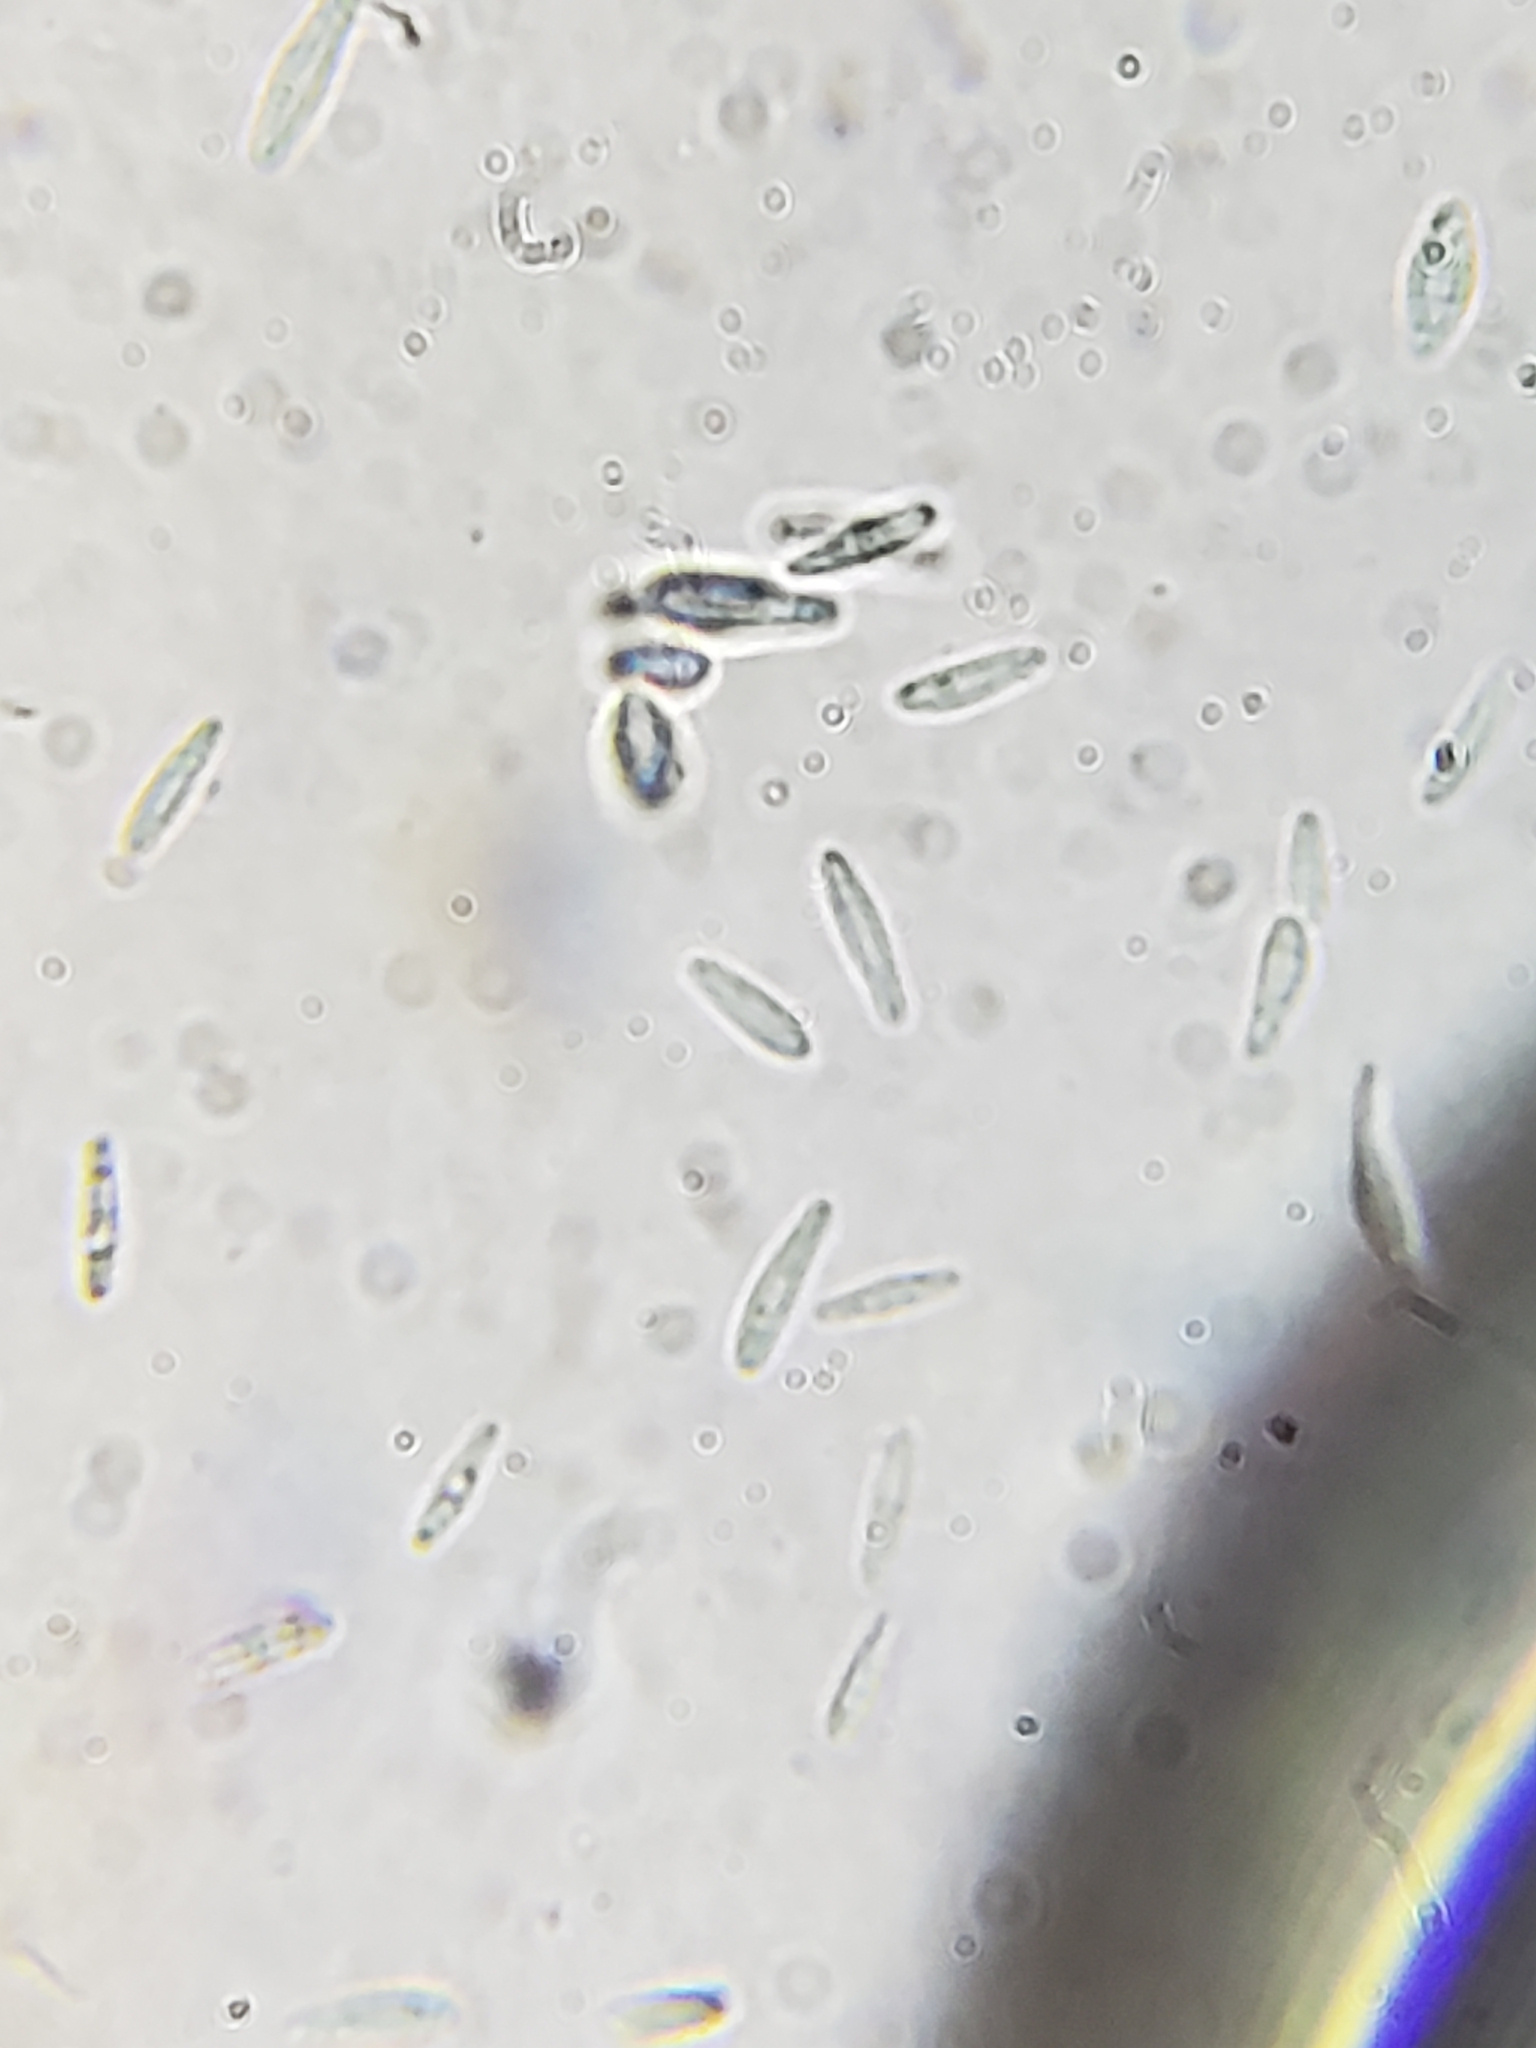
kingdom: Fungi
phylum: Ascomycota
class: Leotiomycetes
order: Helotiales
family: Lachnaceae
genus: Trichopeziza
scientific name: Trichopeziza subsulphurea
